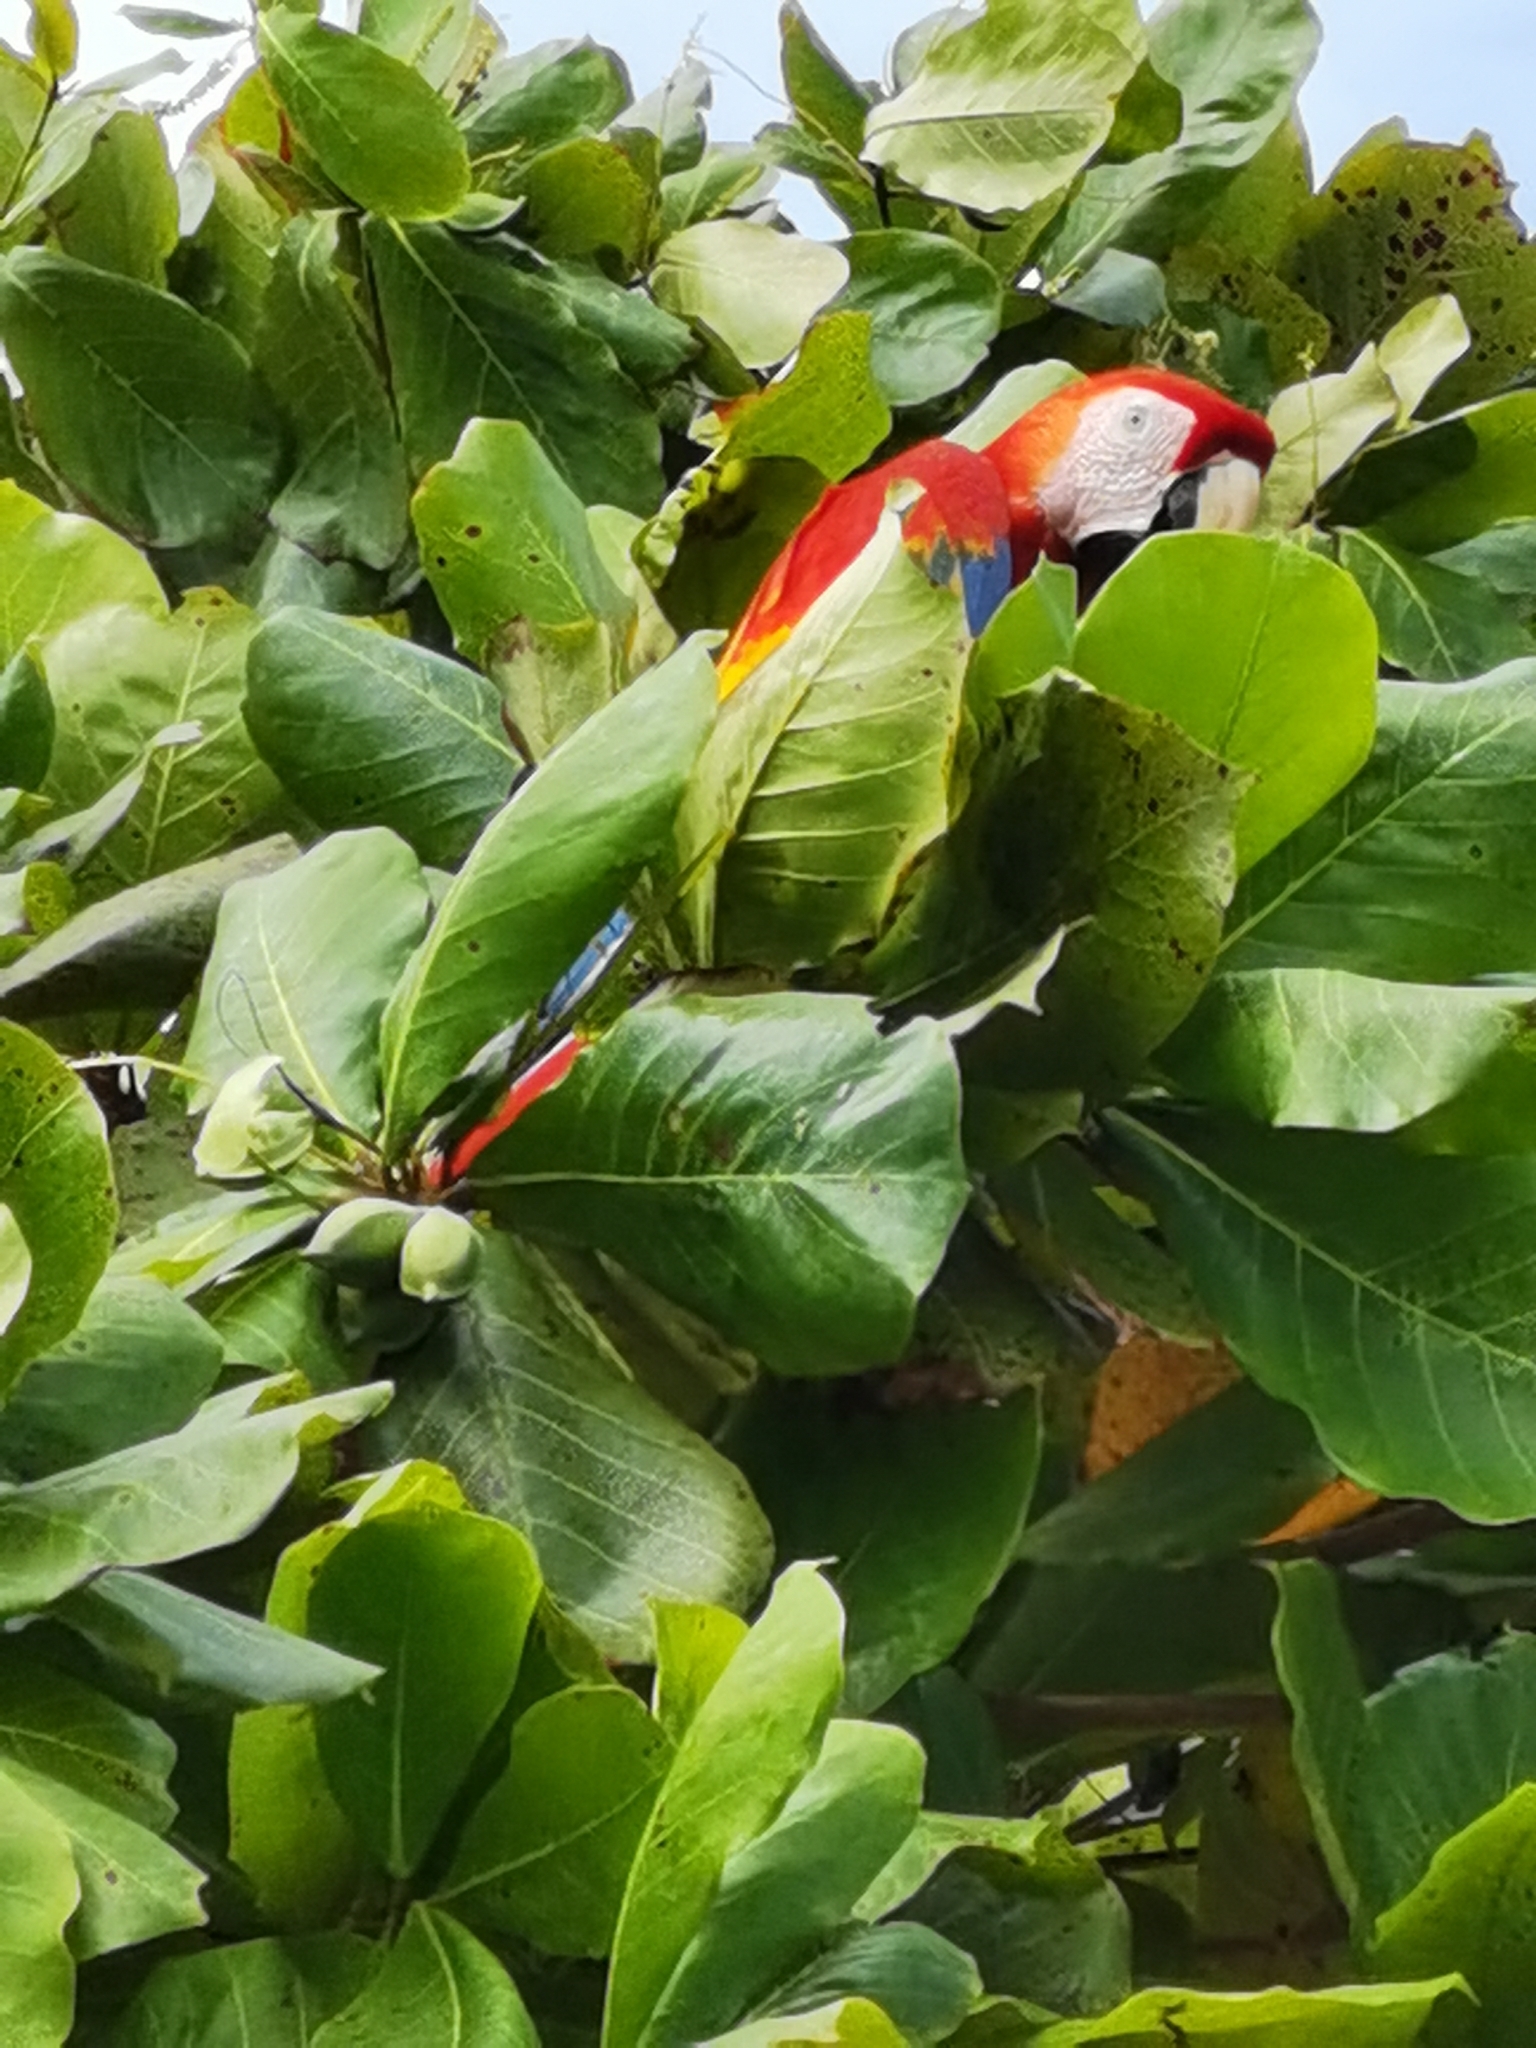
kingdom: Animalia
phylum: Chordata
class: Aves
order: Psittaciformes
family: Psittacidae
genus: Ara
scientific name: Ara macao
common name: Scarlet macaw
